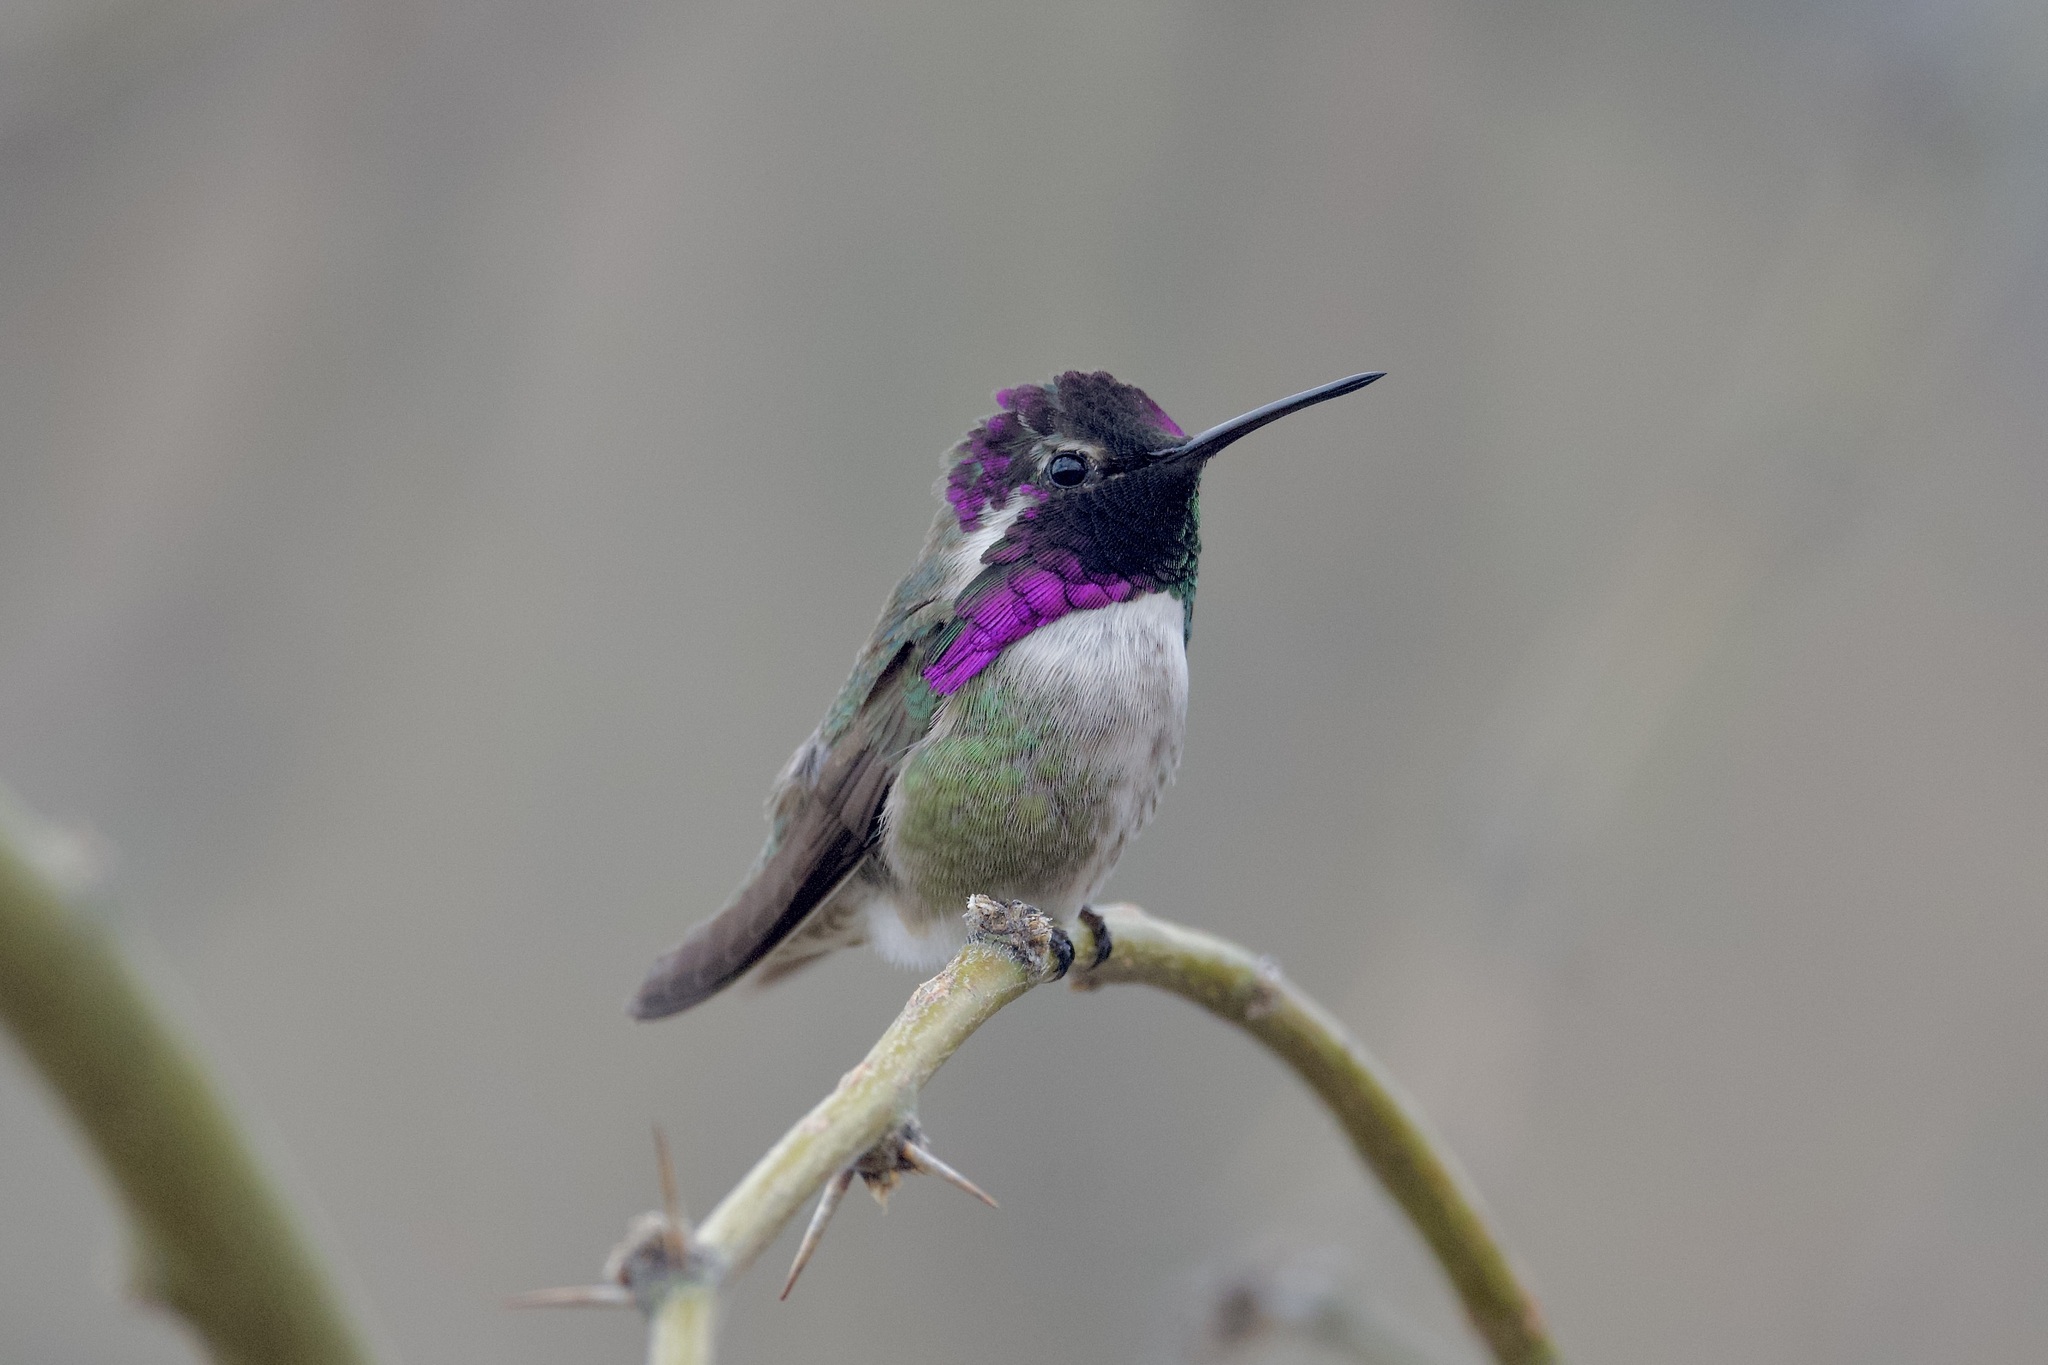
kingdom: Animalia
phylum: Chordata
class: Aves
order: Apodiformes
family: Trochilidae
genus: Calypte
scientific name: Calypte costae
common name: Costa's hummingbird
